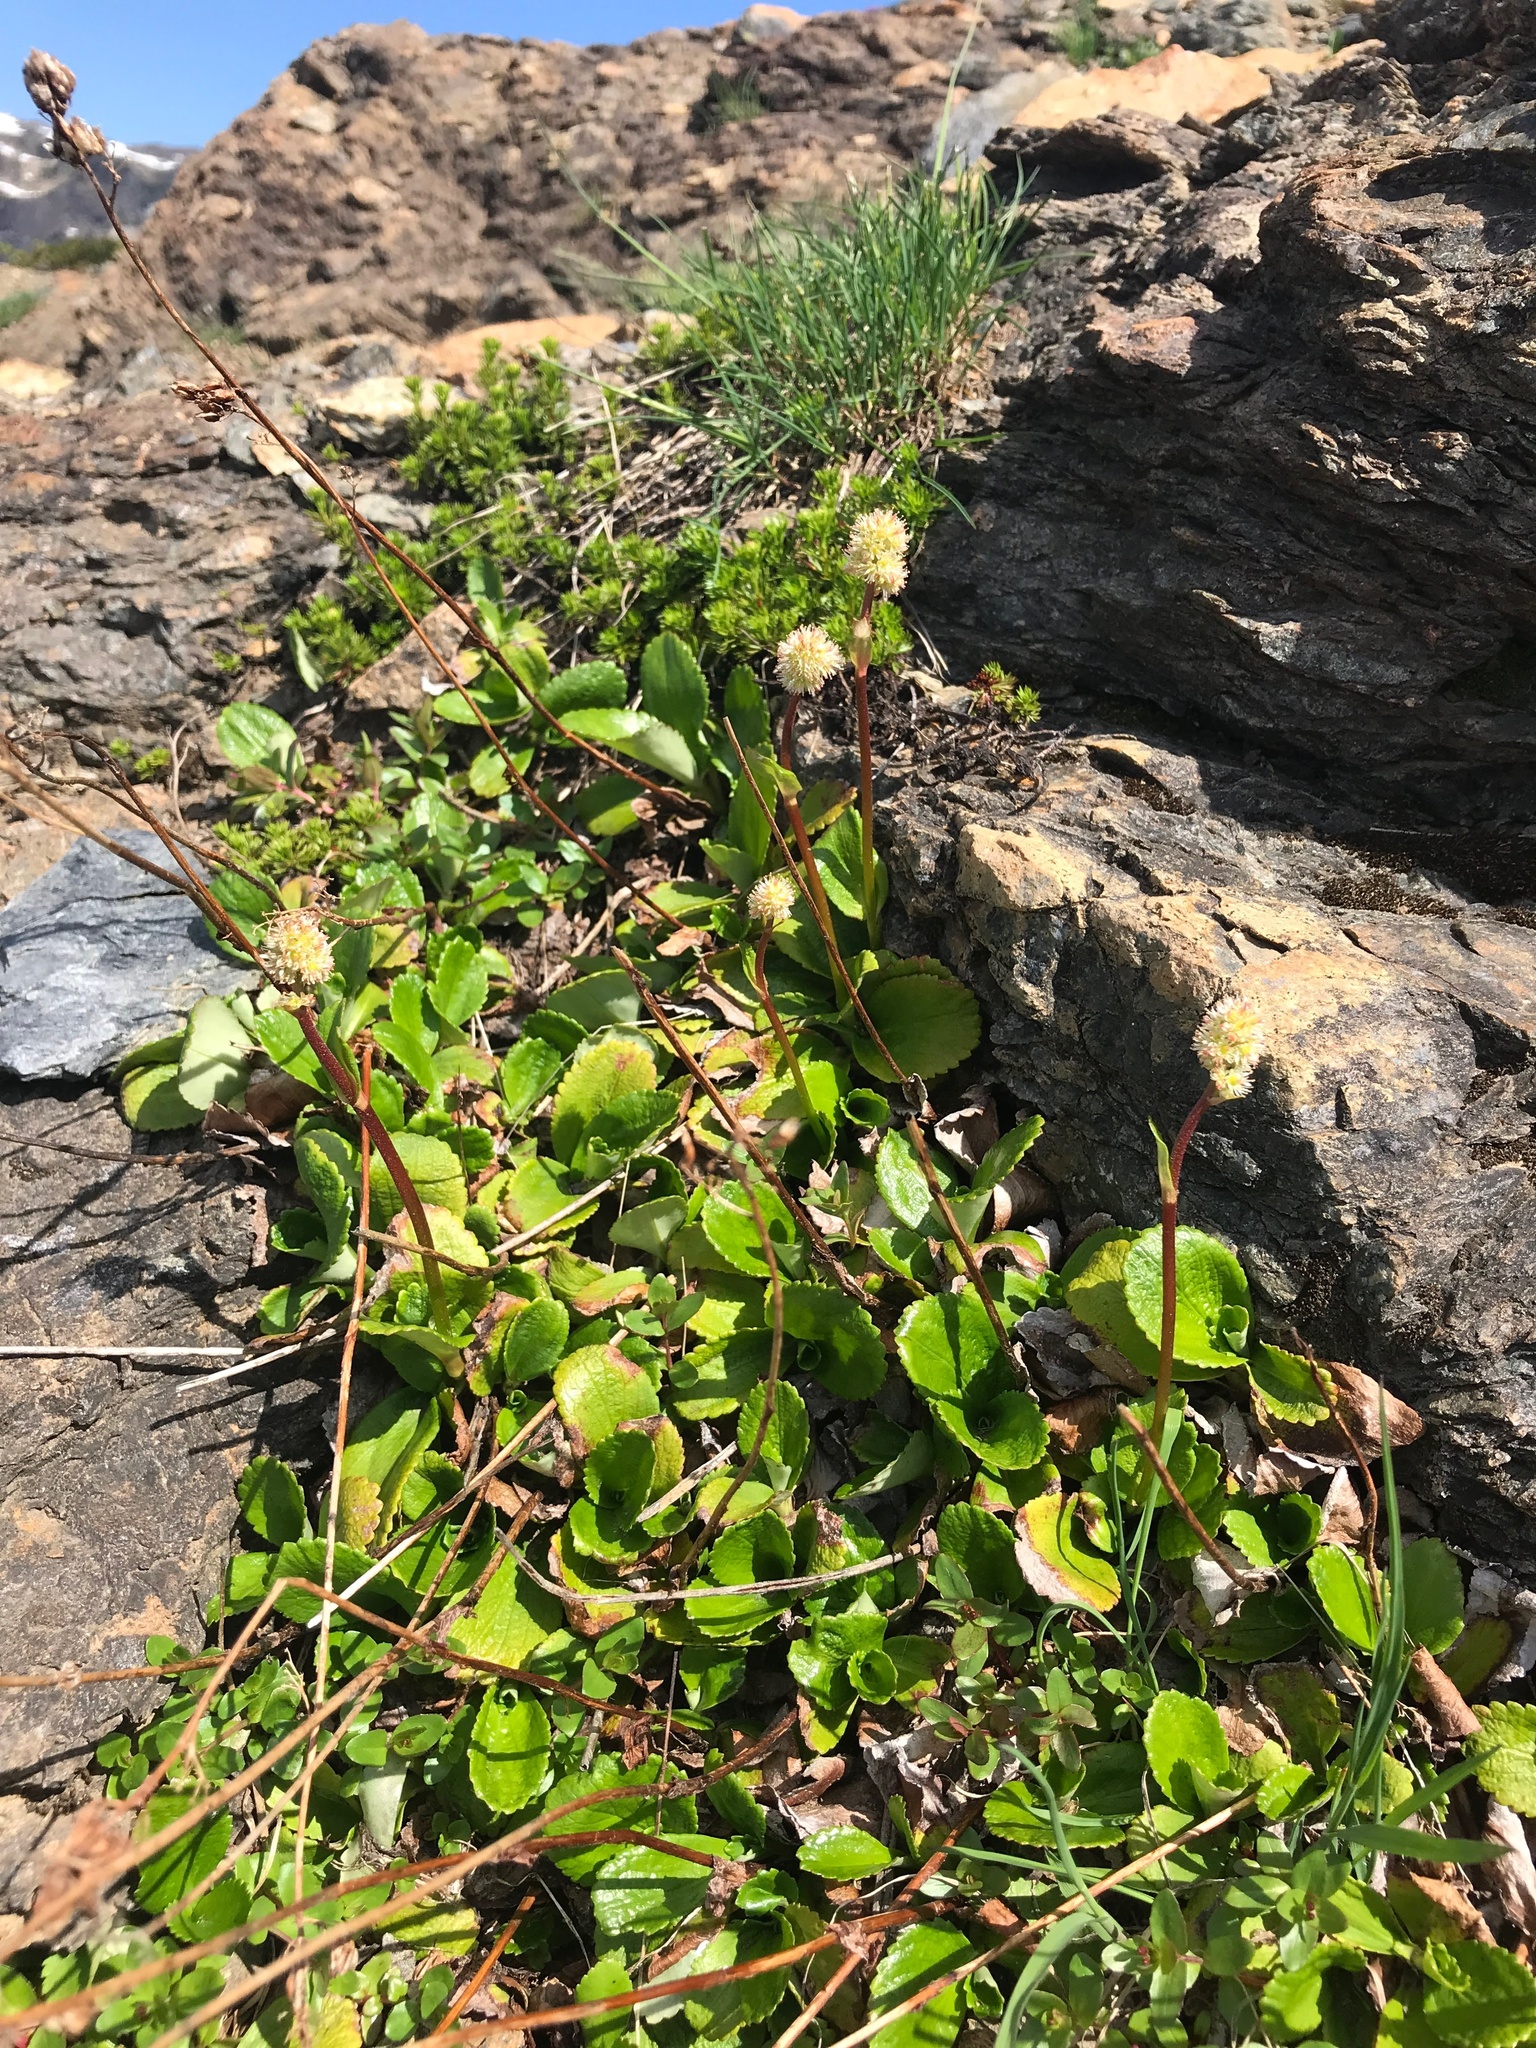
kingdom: Plantae
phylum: Tracheophyta
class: Magnoliopsida
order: Saxifragales
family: Saxifragaceae
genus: Leptarrhena
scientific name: Leptarrhena pyrolifolia
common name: Leatherleaf-saxifrage
